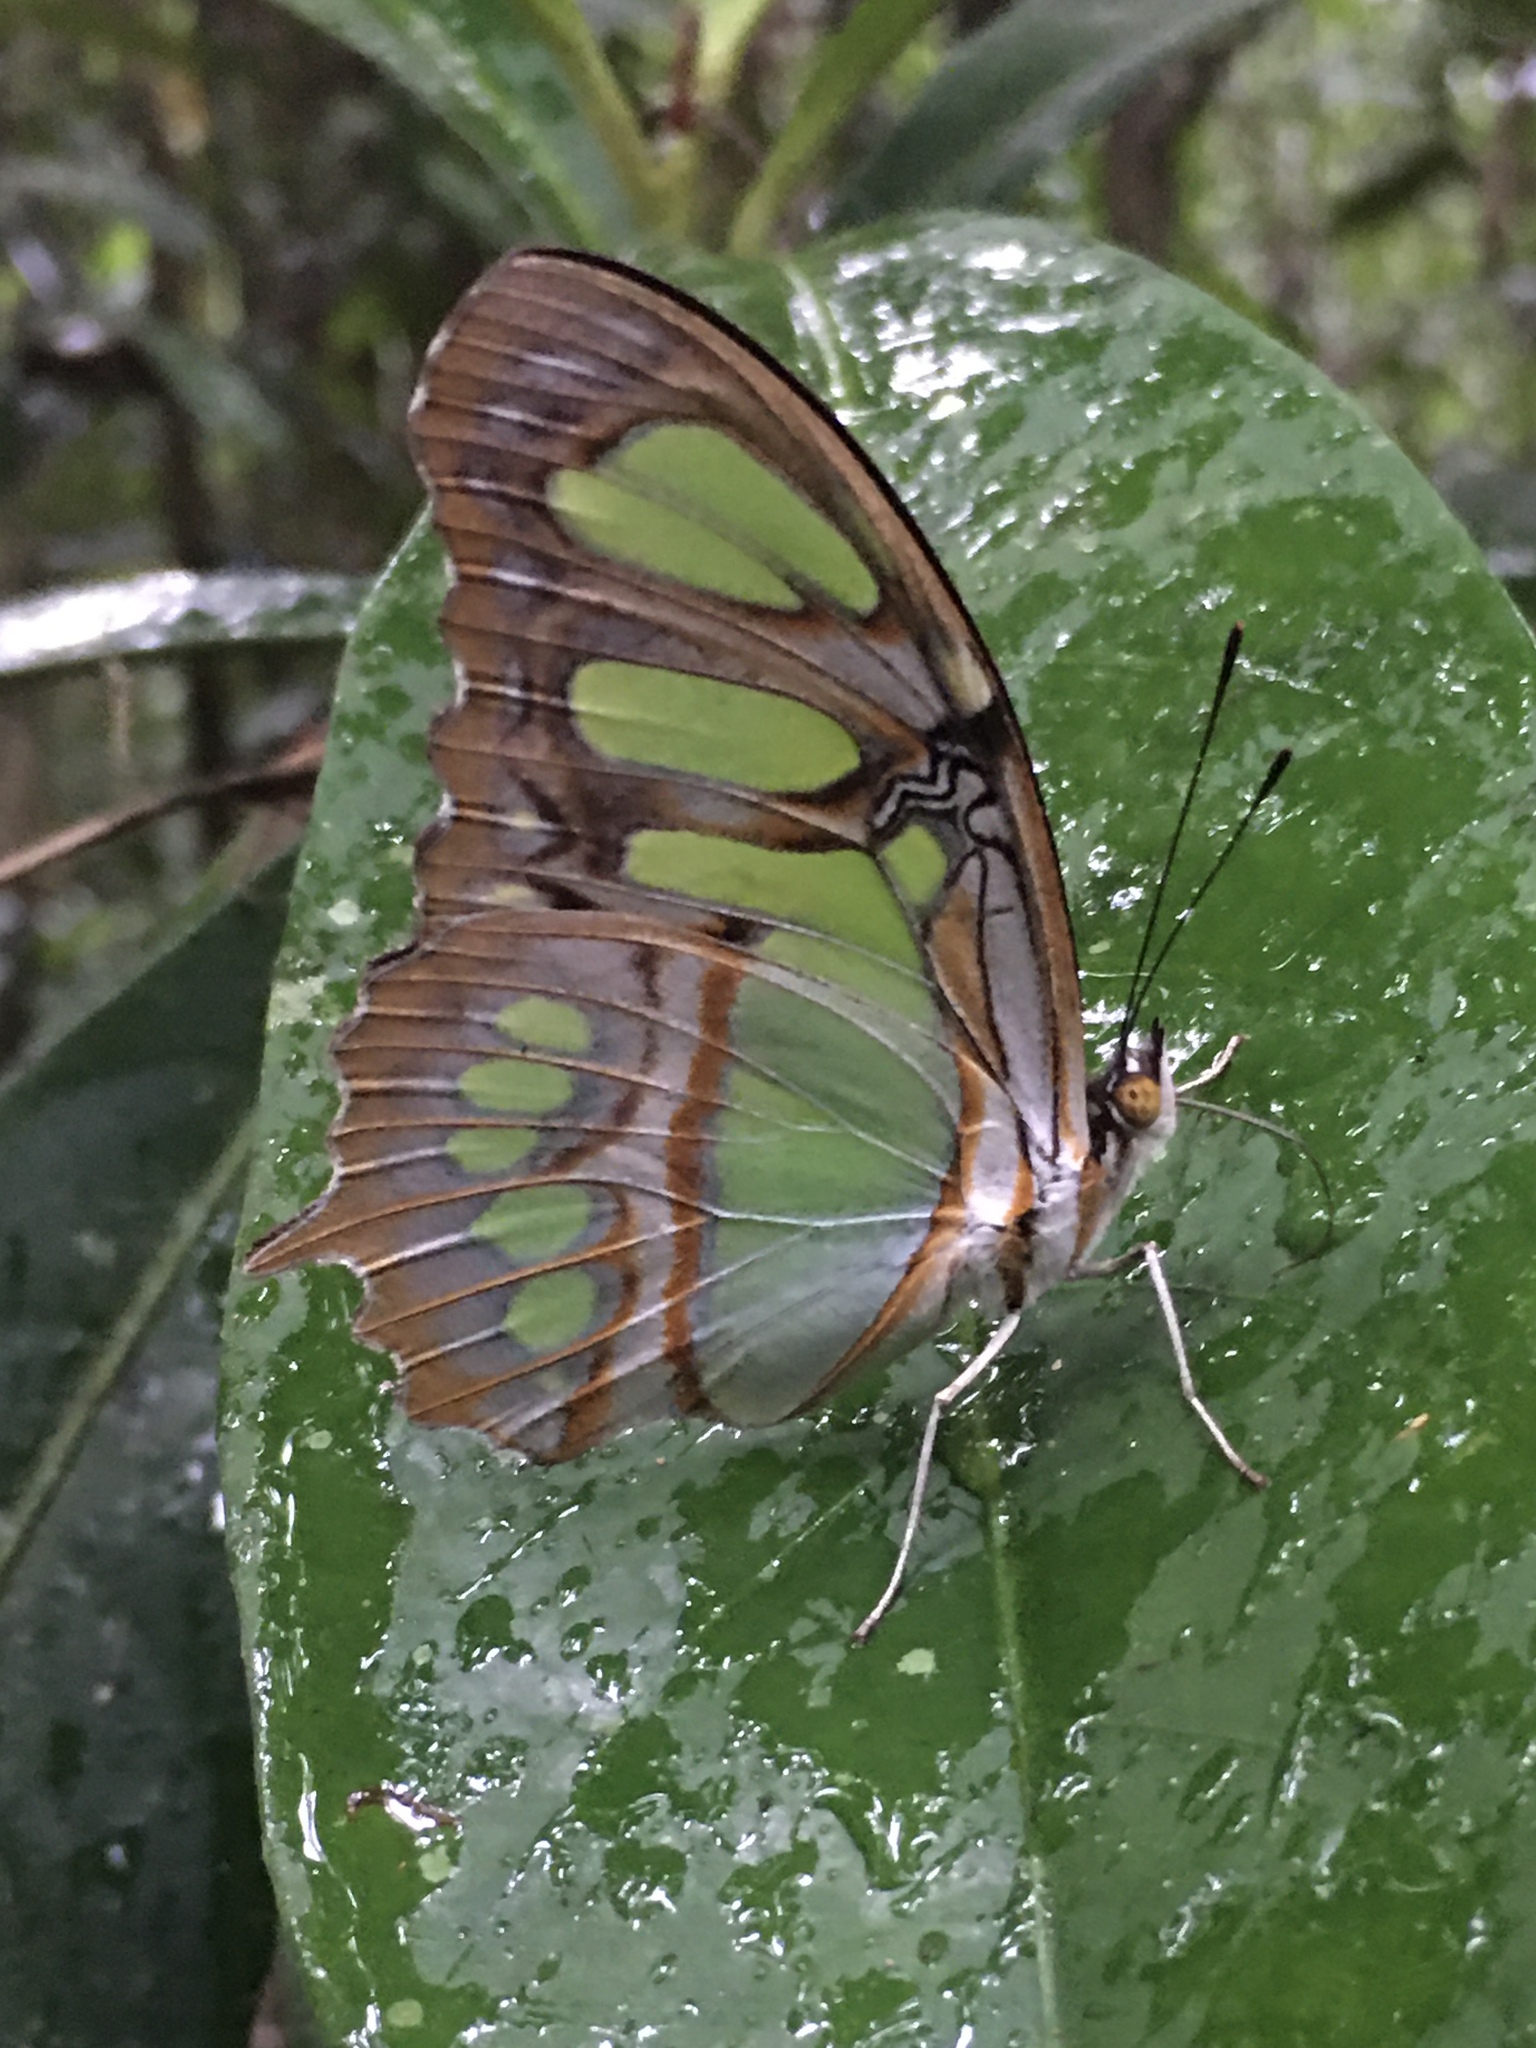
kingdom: Animalia
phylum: Arthropoda
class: Insecta
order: Lepidoptera
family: Nymphalidae
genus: Siproeta
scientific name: Siproeta stelenes
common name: Malachite
